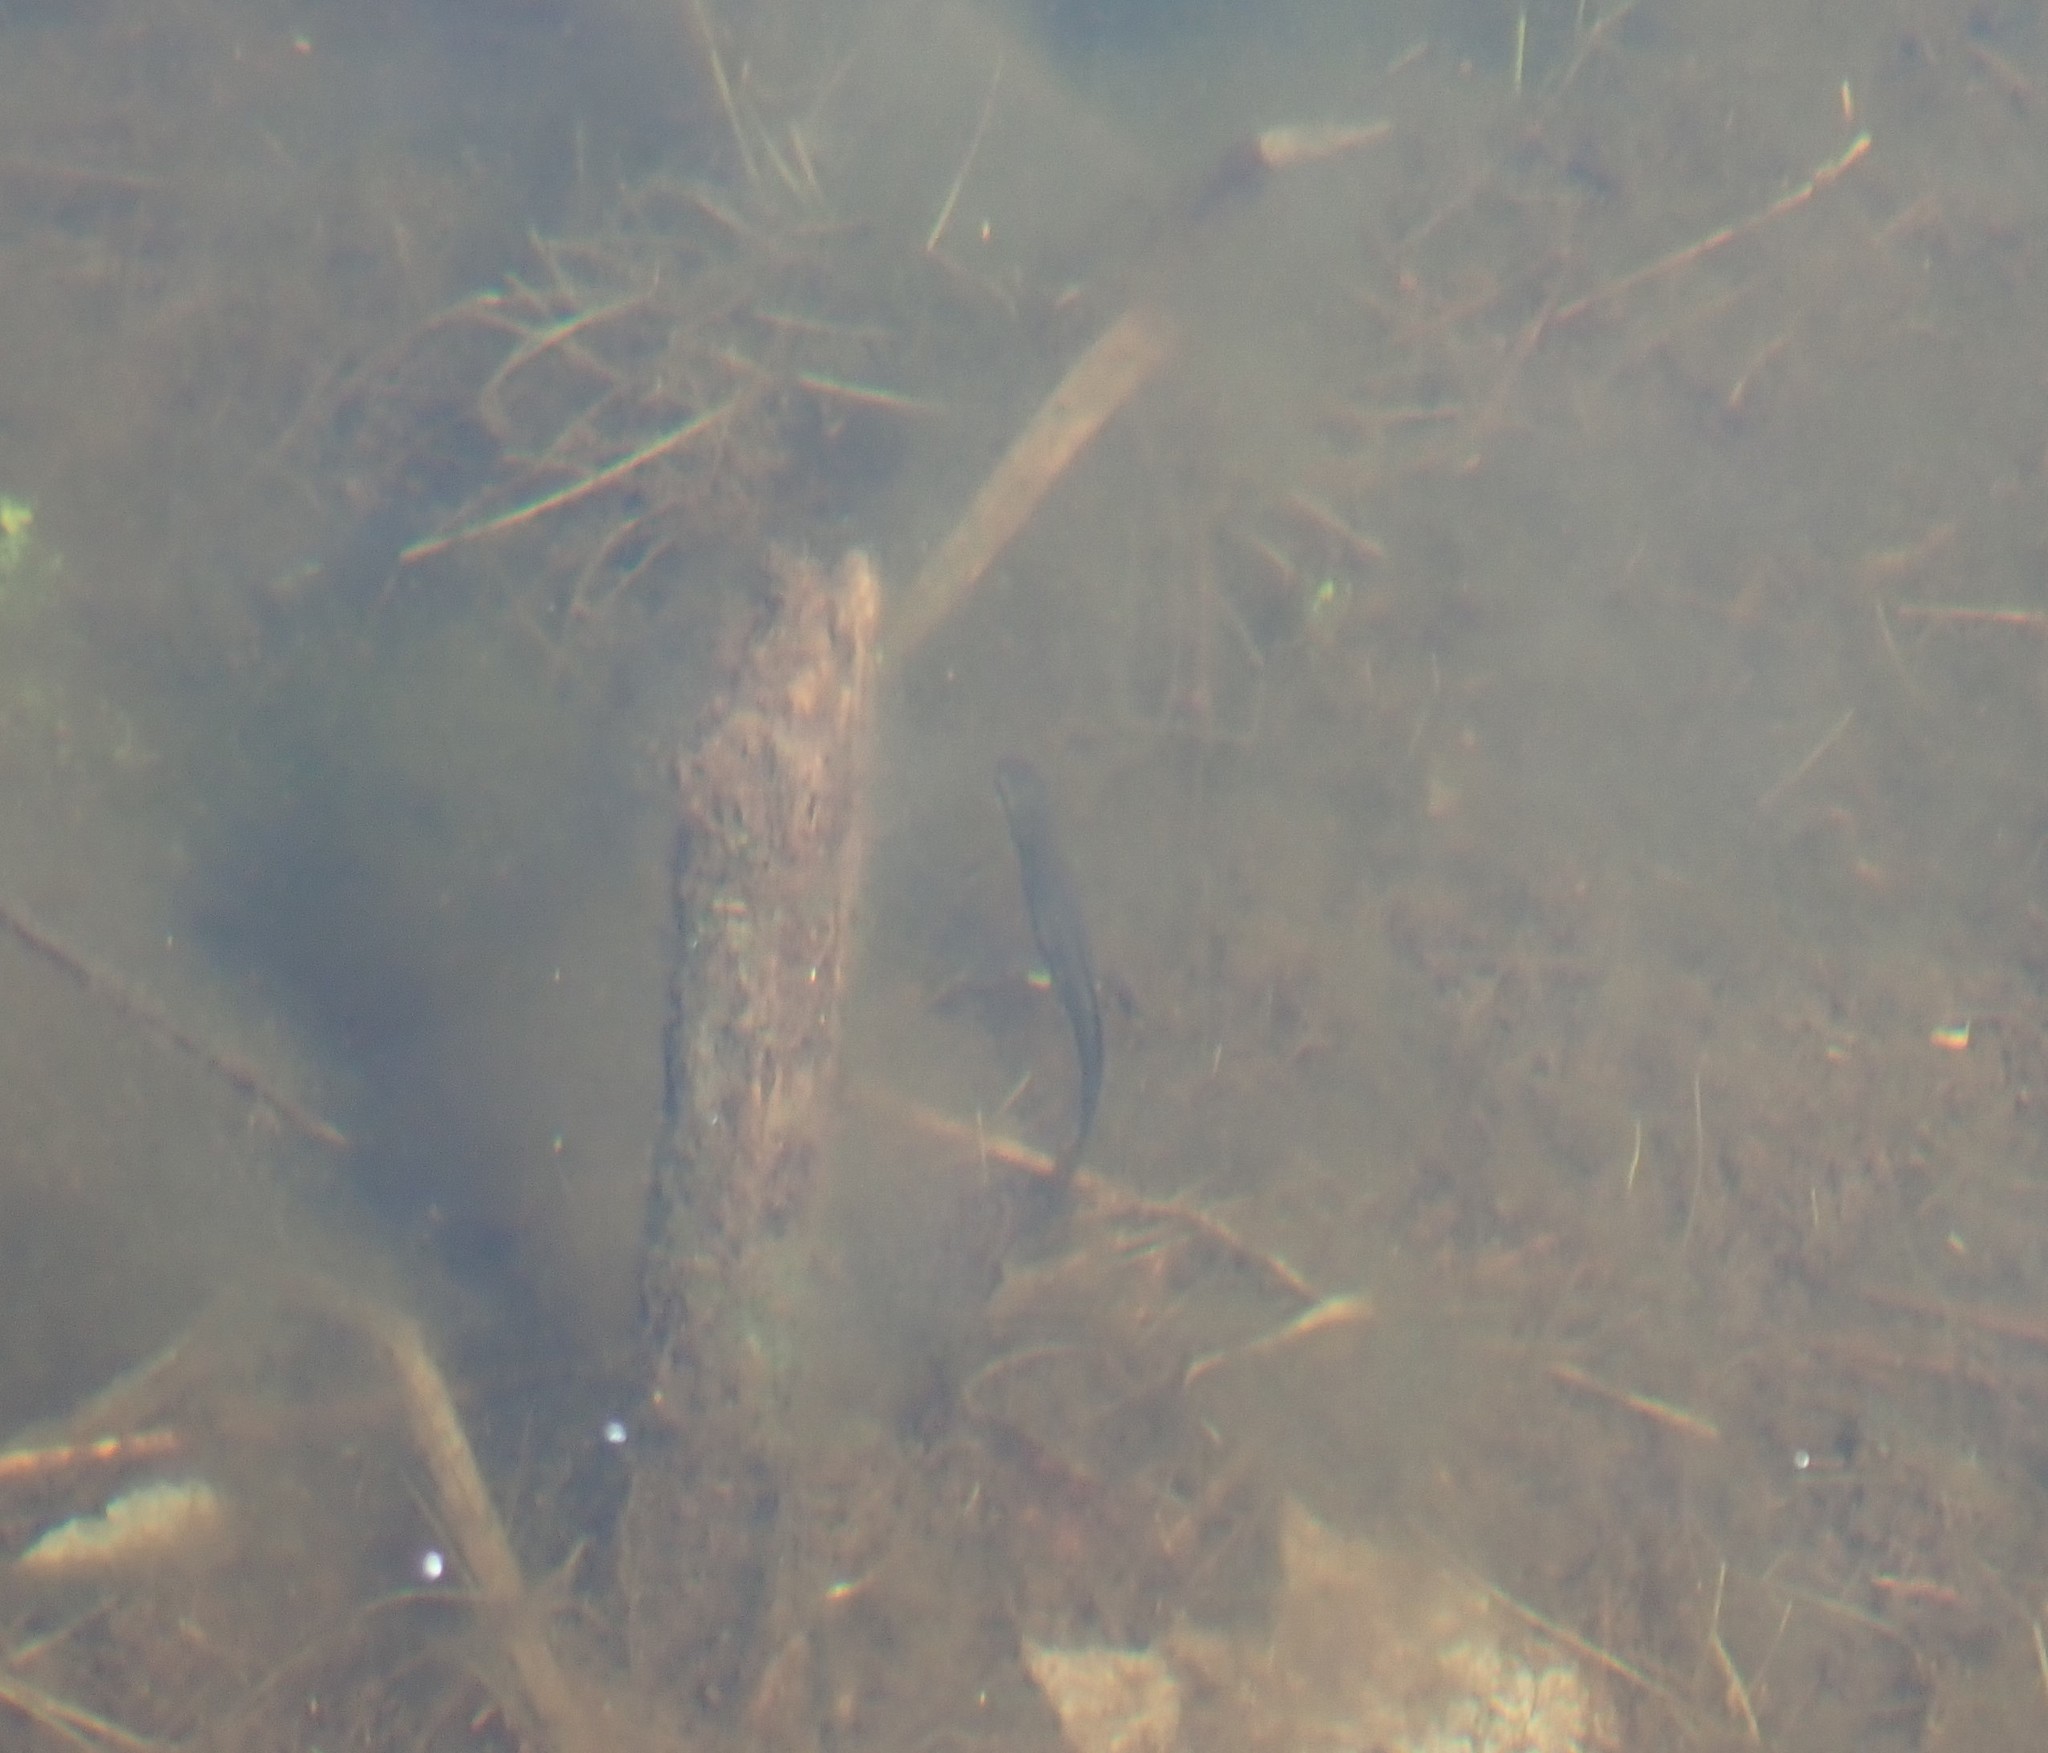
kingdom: Animalia
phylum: Chordata
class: Amphibia
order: Caudata
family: Salamandridae
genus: Notophthalmus
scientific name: Notophthalmus viridescens
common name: Eastern newt
